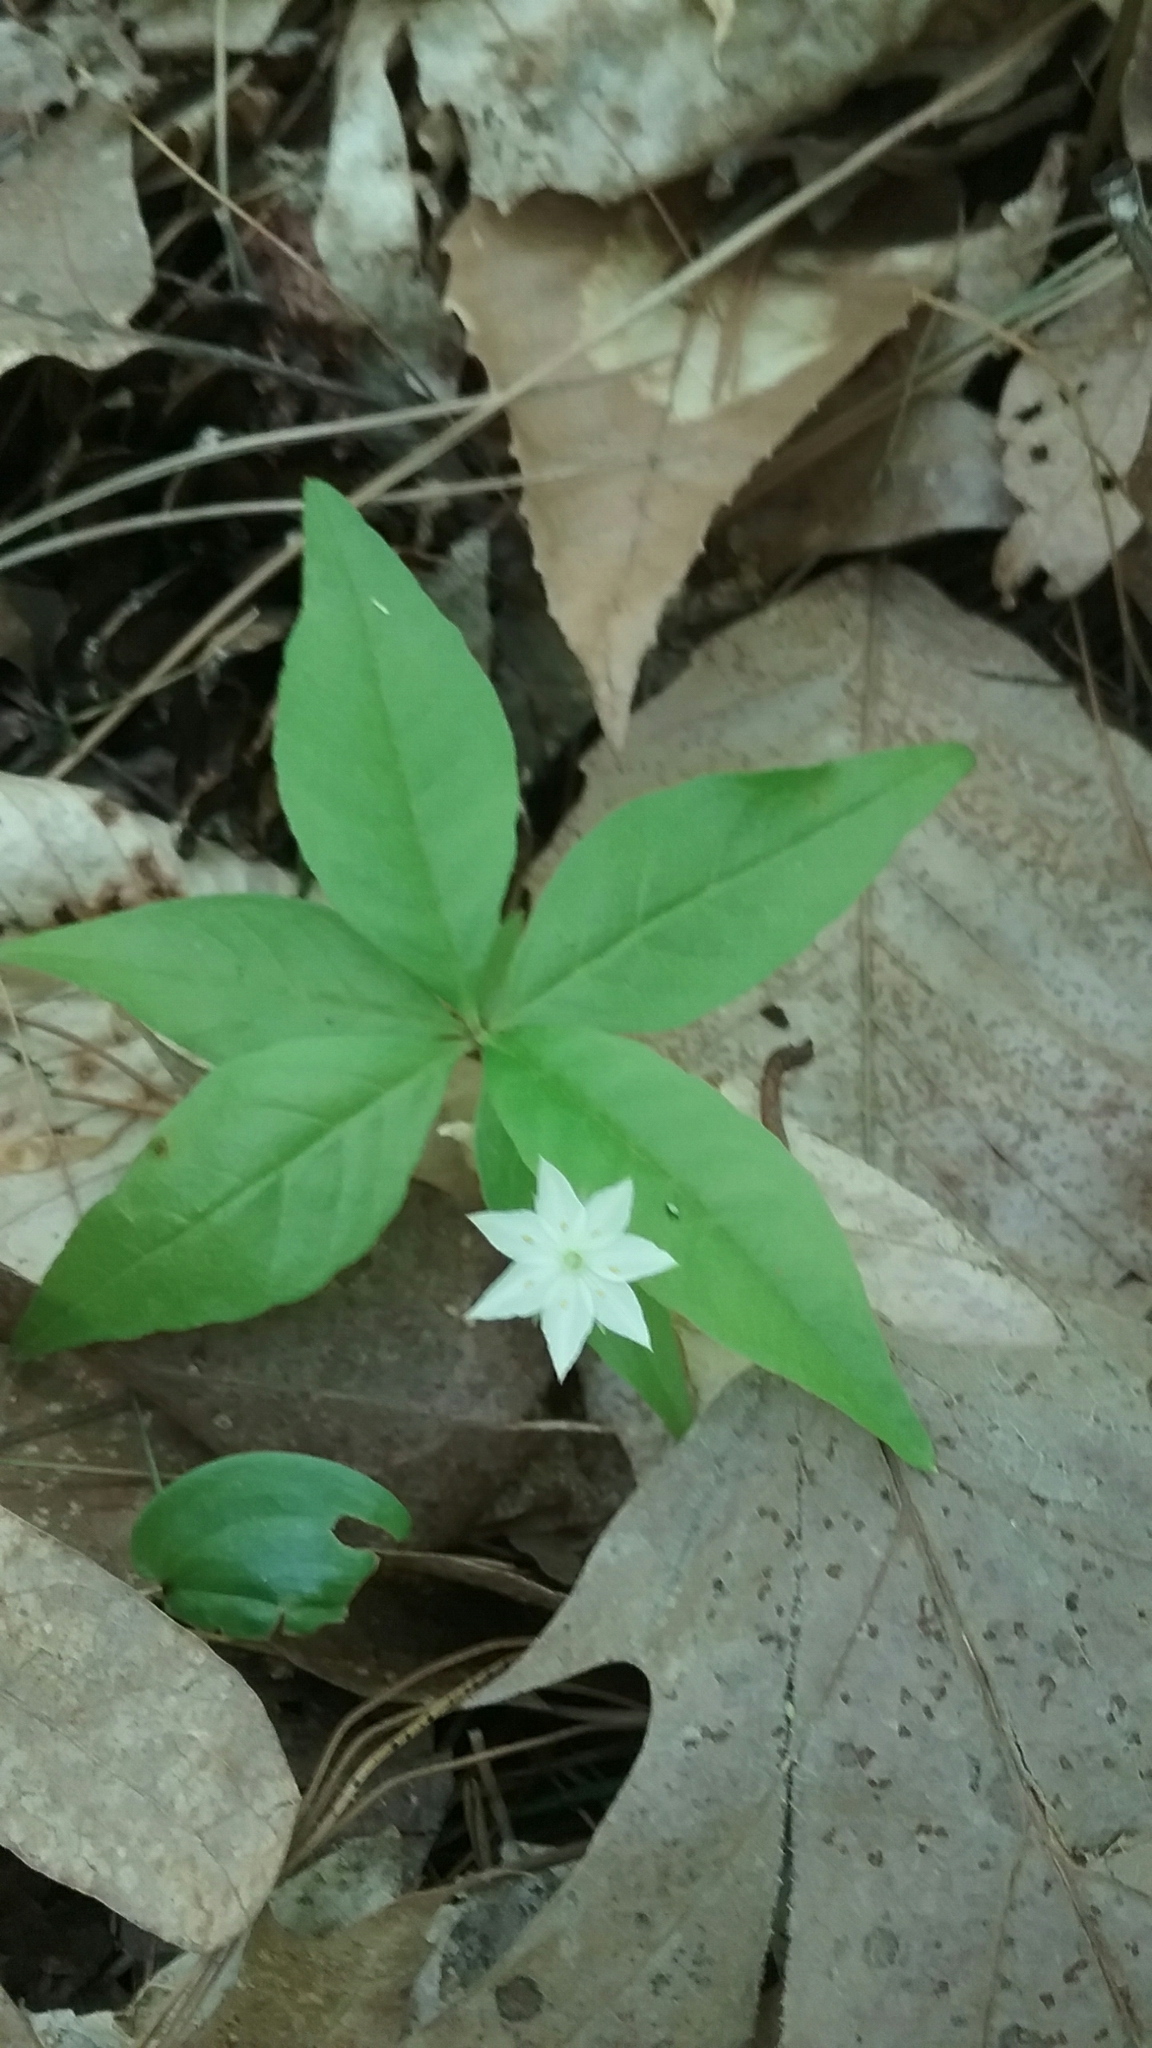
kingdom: Plantae
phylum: Tracheophyta
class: Magnoliopsida
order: Ericales
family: Primulaceae
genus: Lysimachia
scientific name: Lysimachia borealis
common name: American starflower
